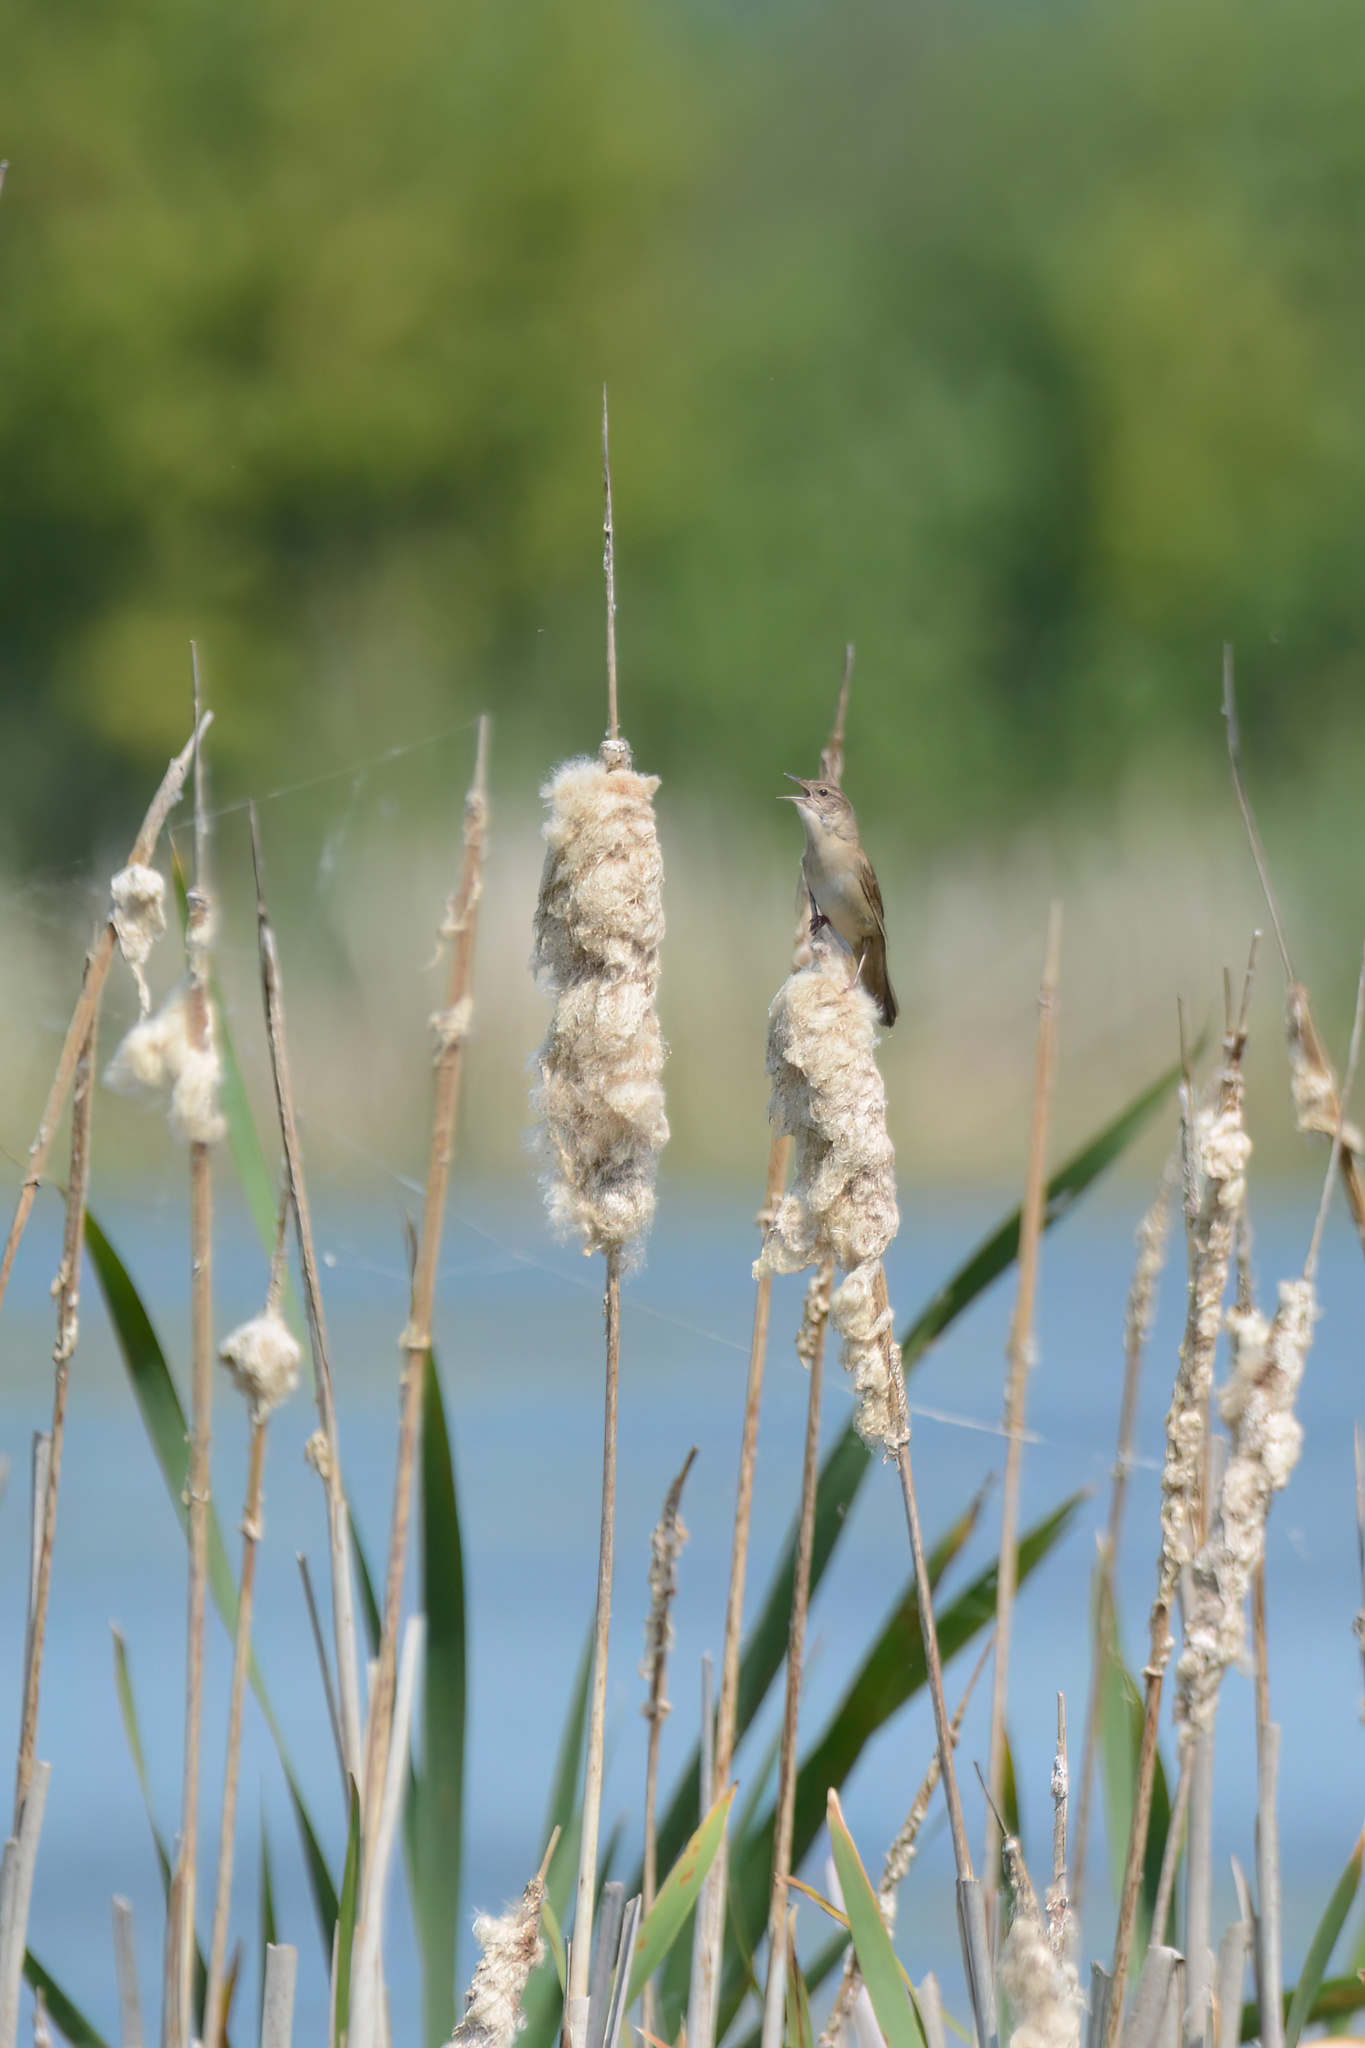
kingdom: Animalia
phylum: Chordata
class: Aves
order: Passeriformes
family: Locustellidae
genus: Locustella
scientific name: Locustella luscinioides
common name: Savi's warbler
